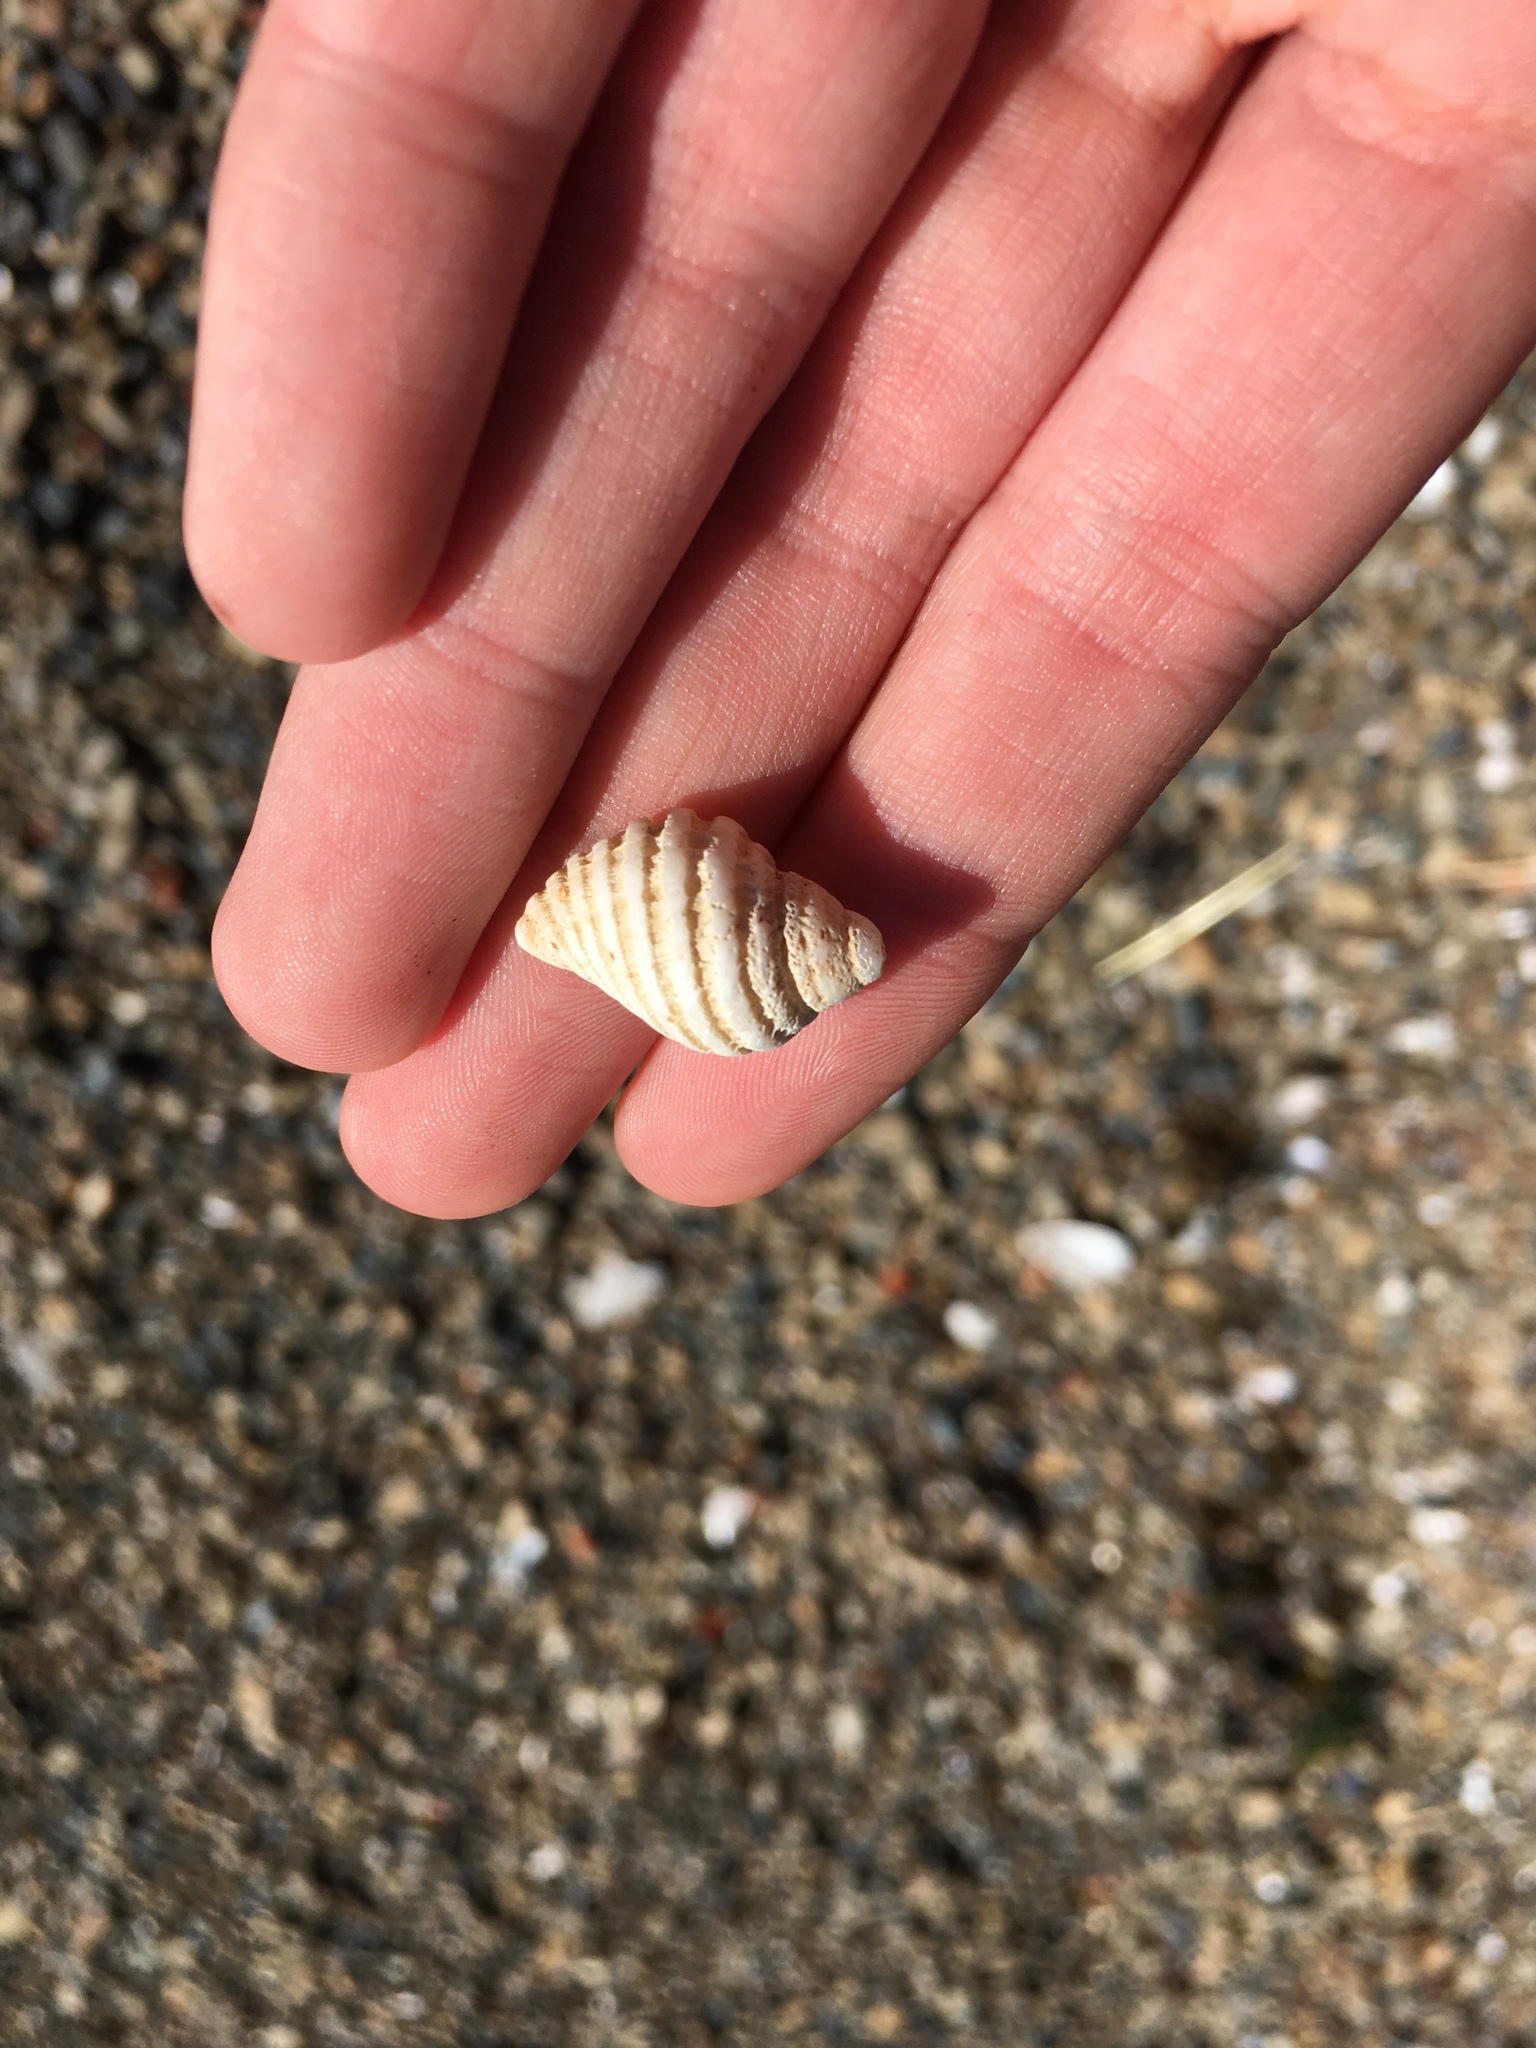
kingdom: Animalia
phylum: Mollusca
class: Gastropoda
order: Neogastropoda
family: Muricidae
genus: Haustrum
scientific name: Haustrum lacunosum
